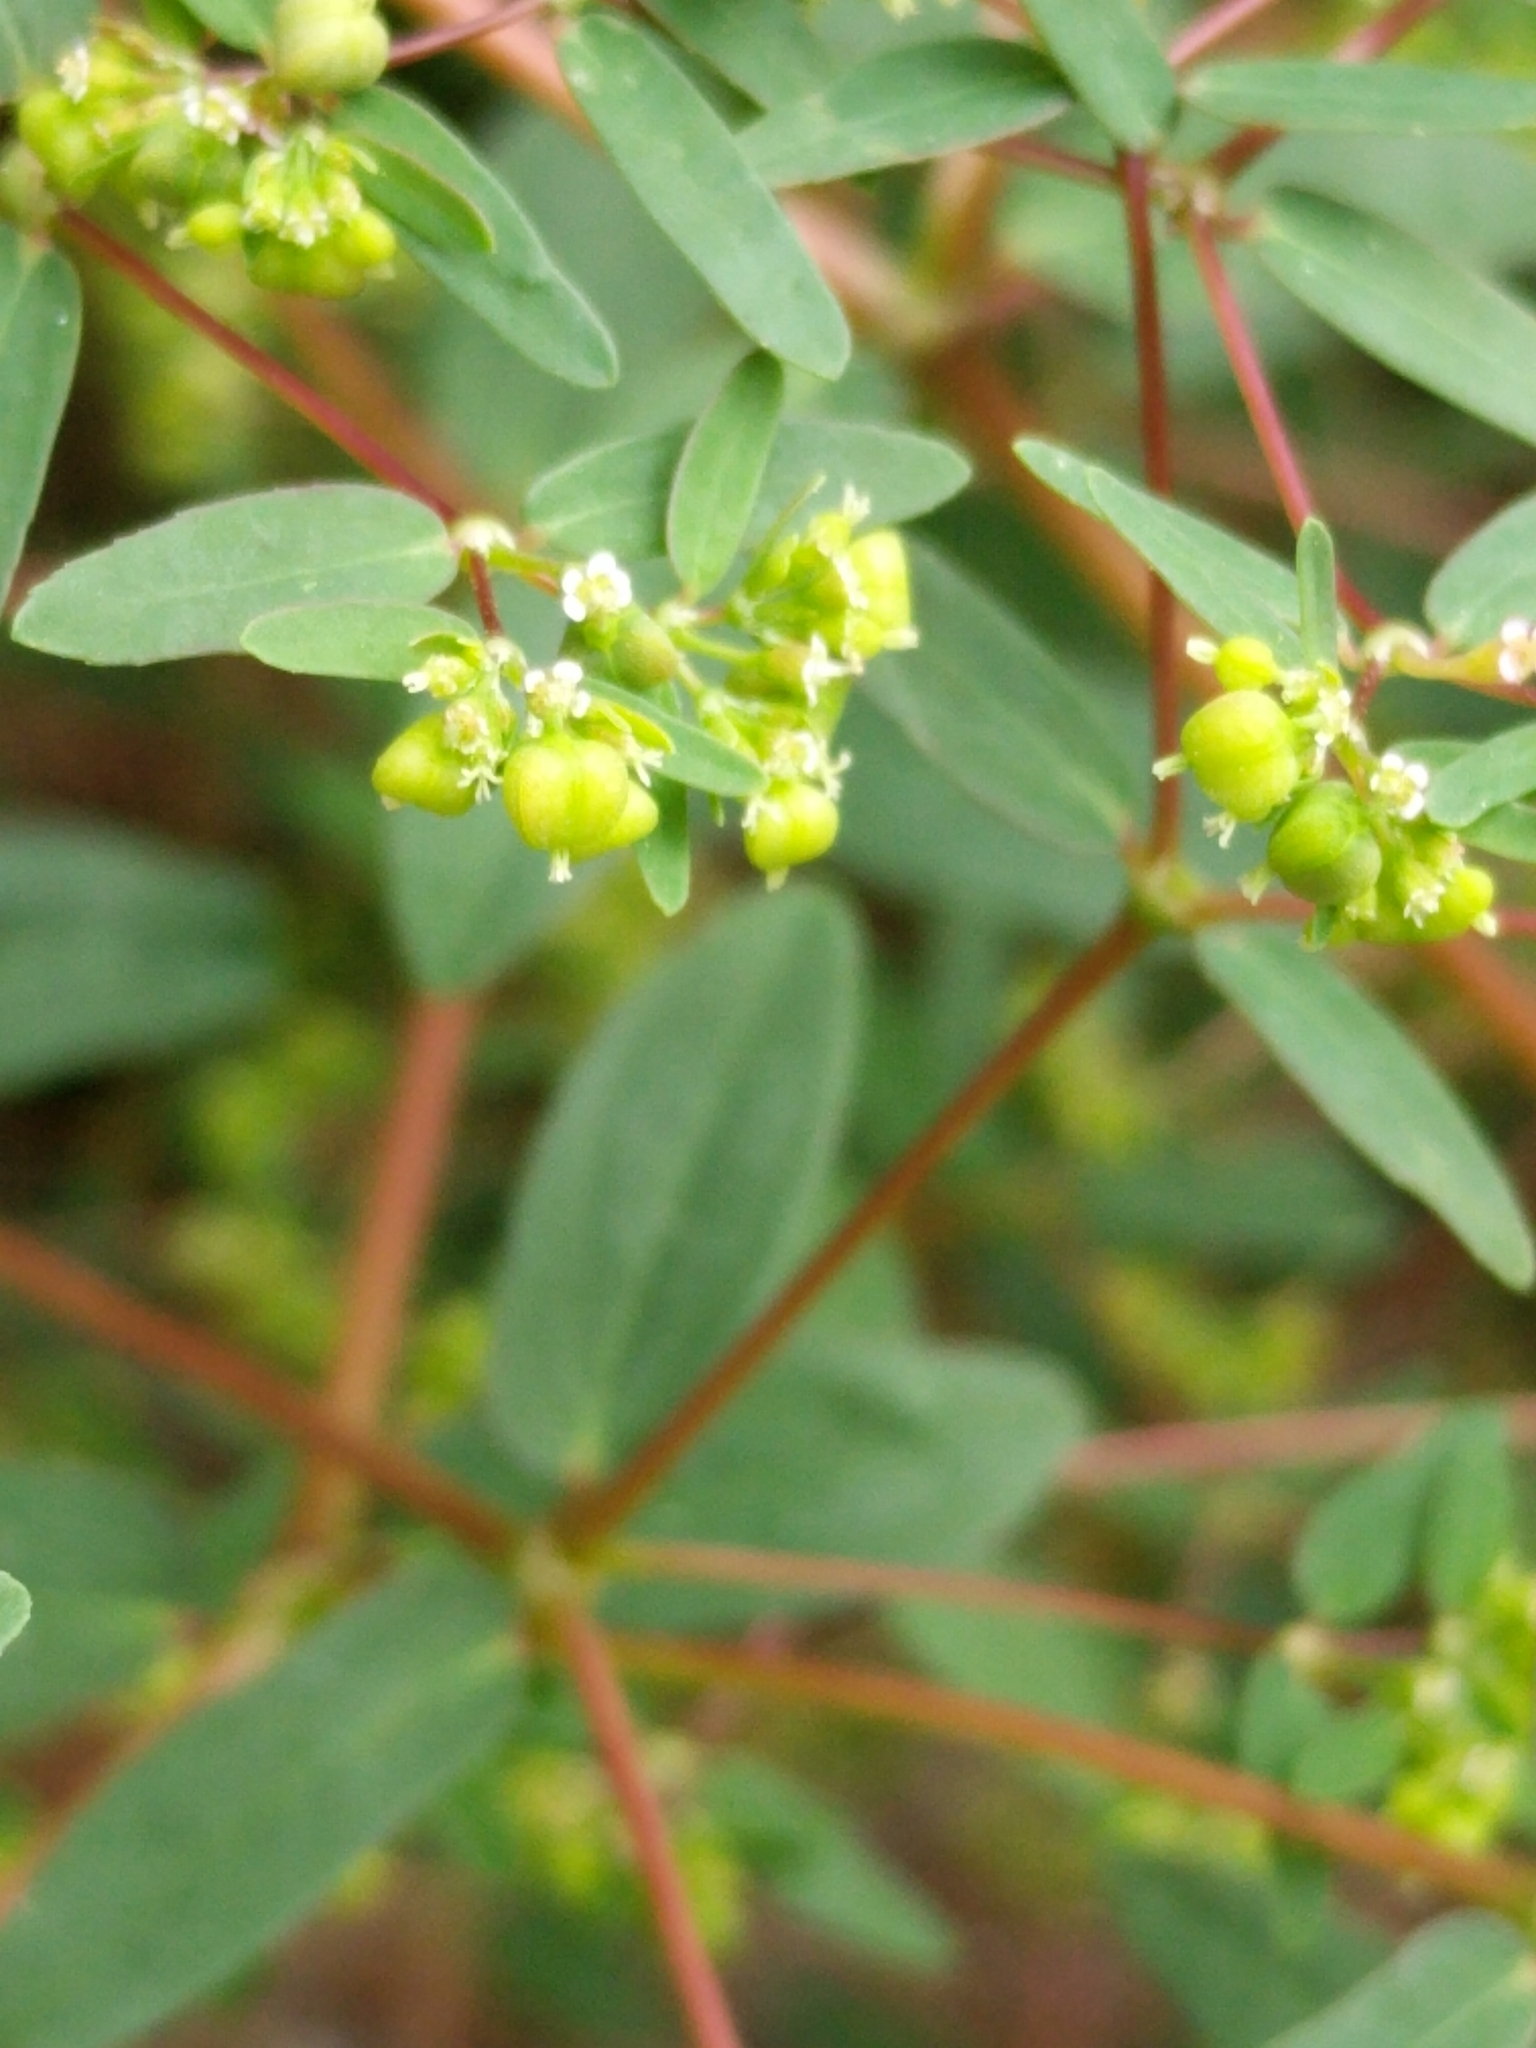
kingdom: Plantae
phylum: Tracheophyta
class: Magnoliopsida
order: Malpighiales
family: Euphorbiaceae
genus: Euphorbia
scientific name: Euphorbia nutans
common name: Eyebane
